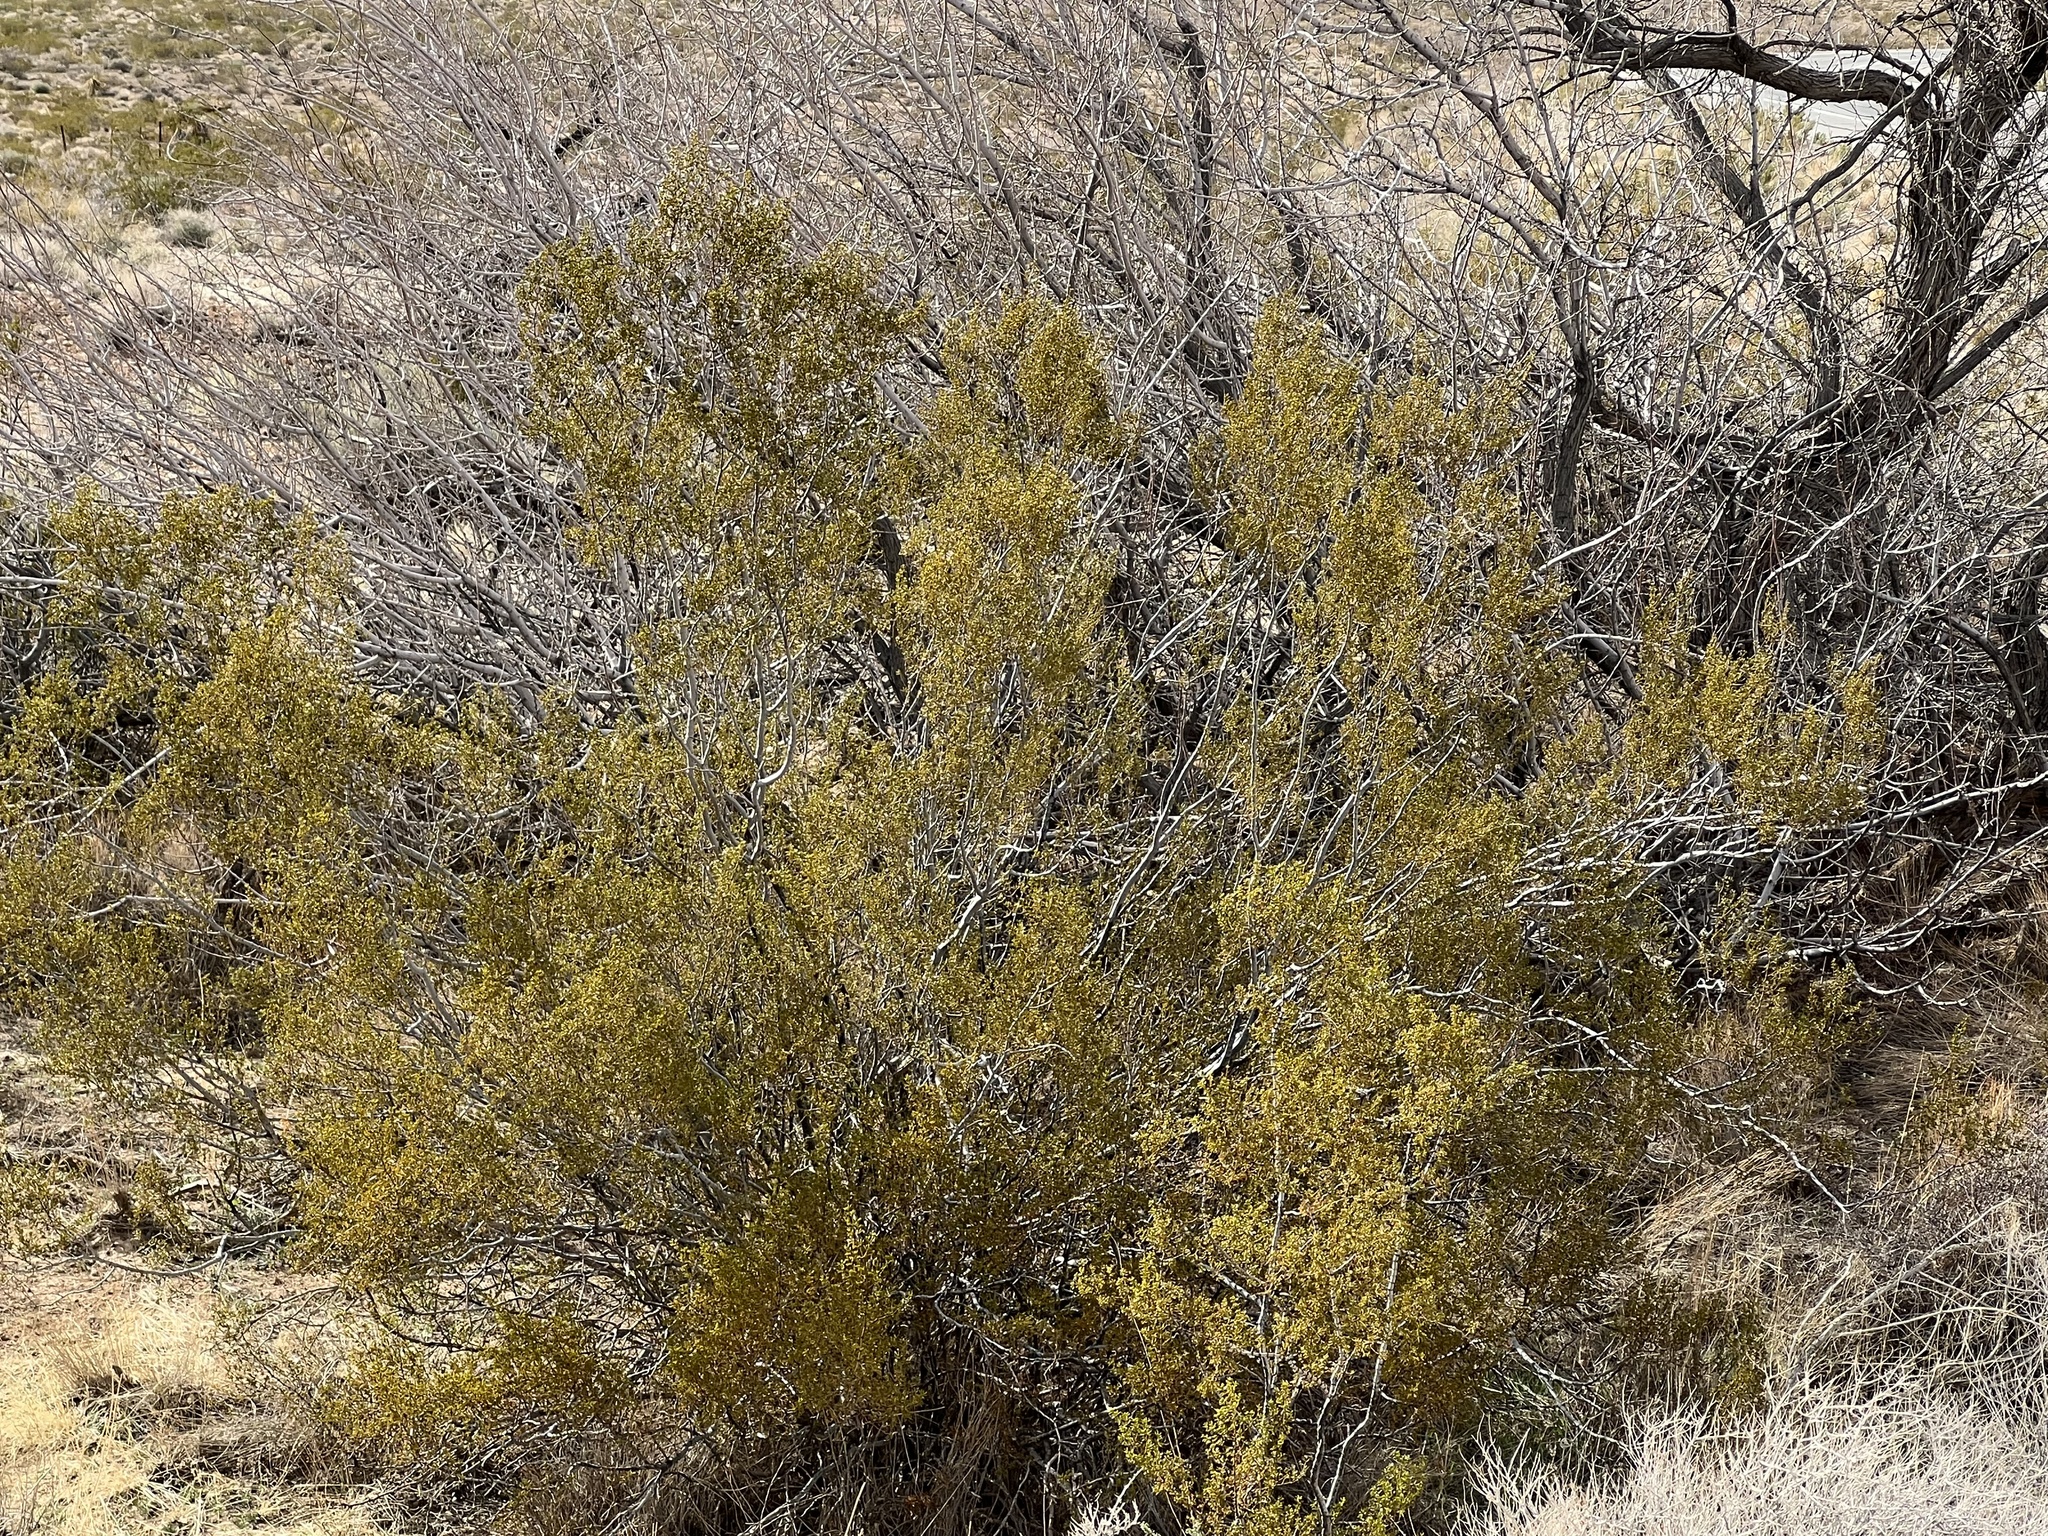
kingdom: Plantae
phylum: Tracheophyta
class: Magnoliopsida
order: Zygophyllales
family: Zygophyllaceae
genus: Larrea
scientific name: Larrea tridentata
